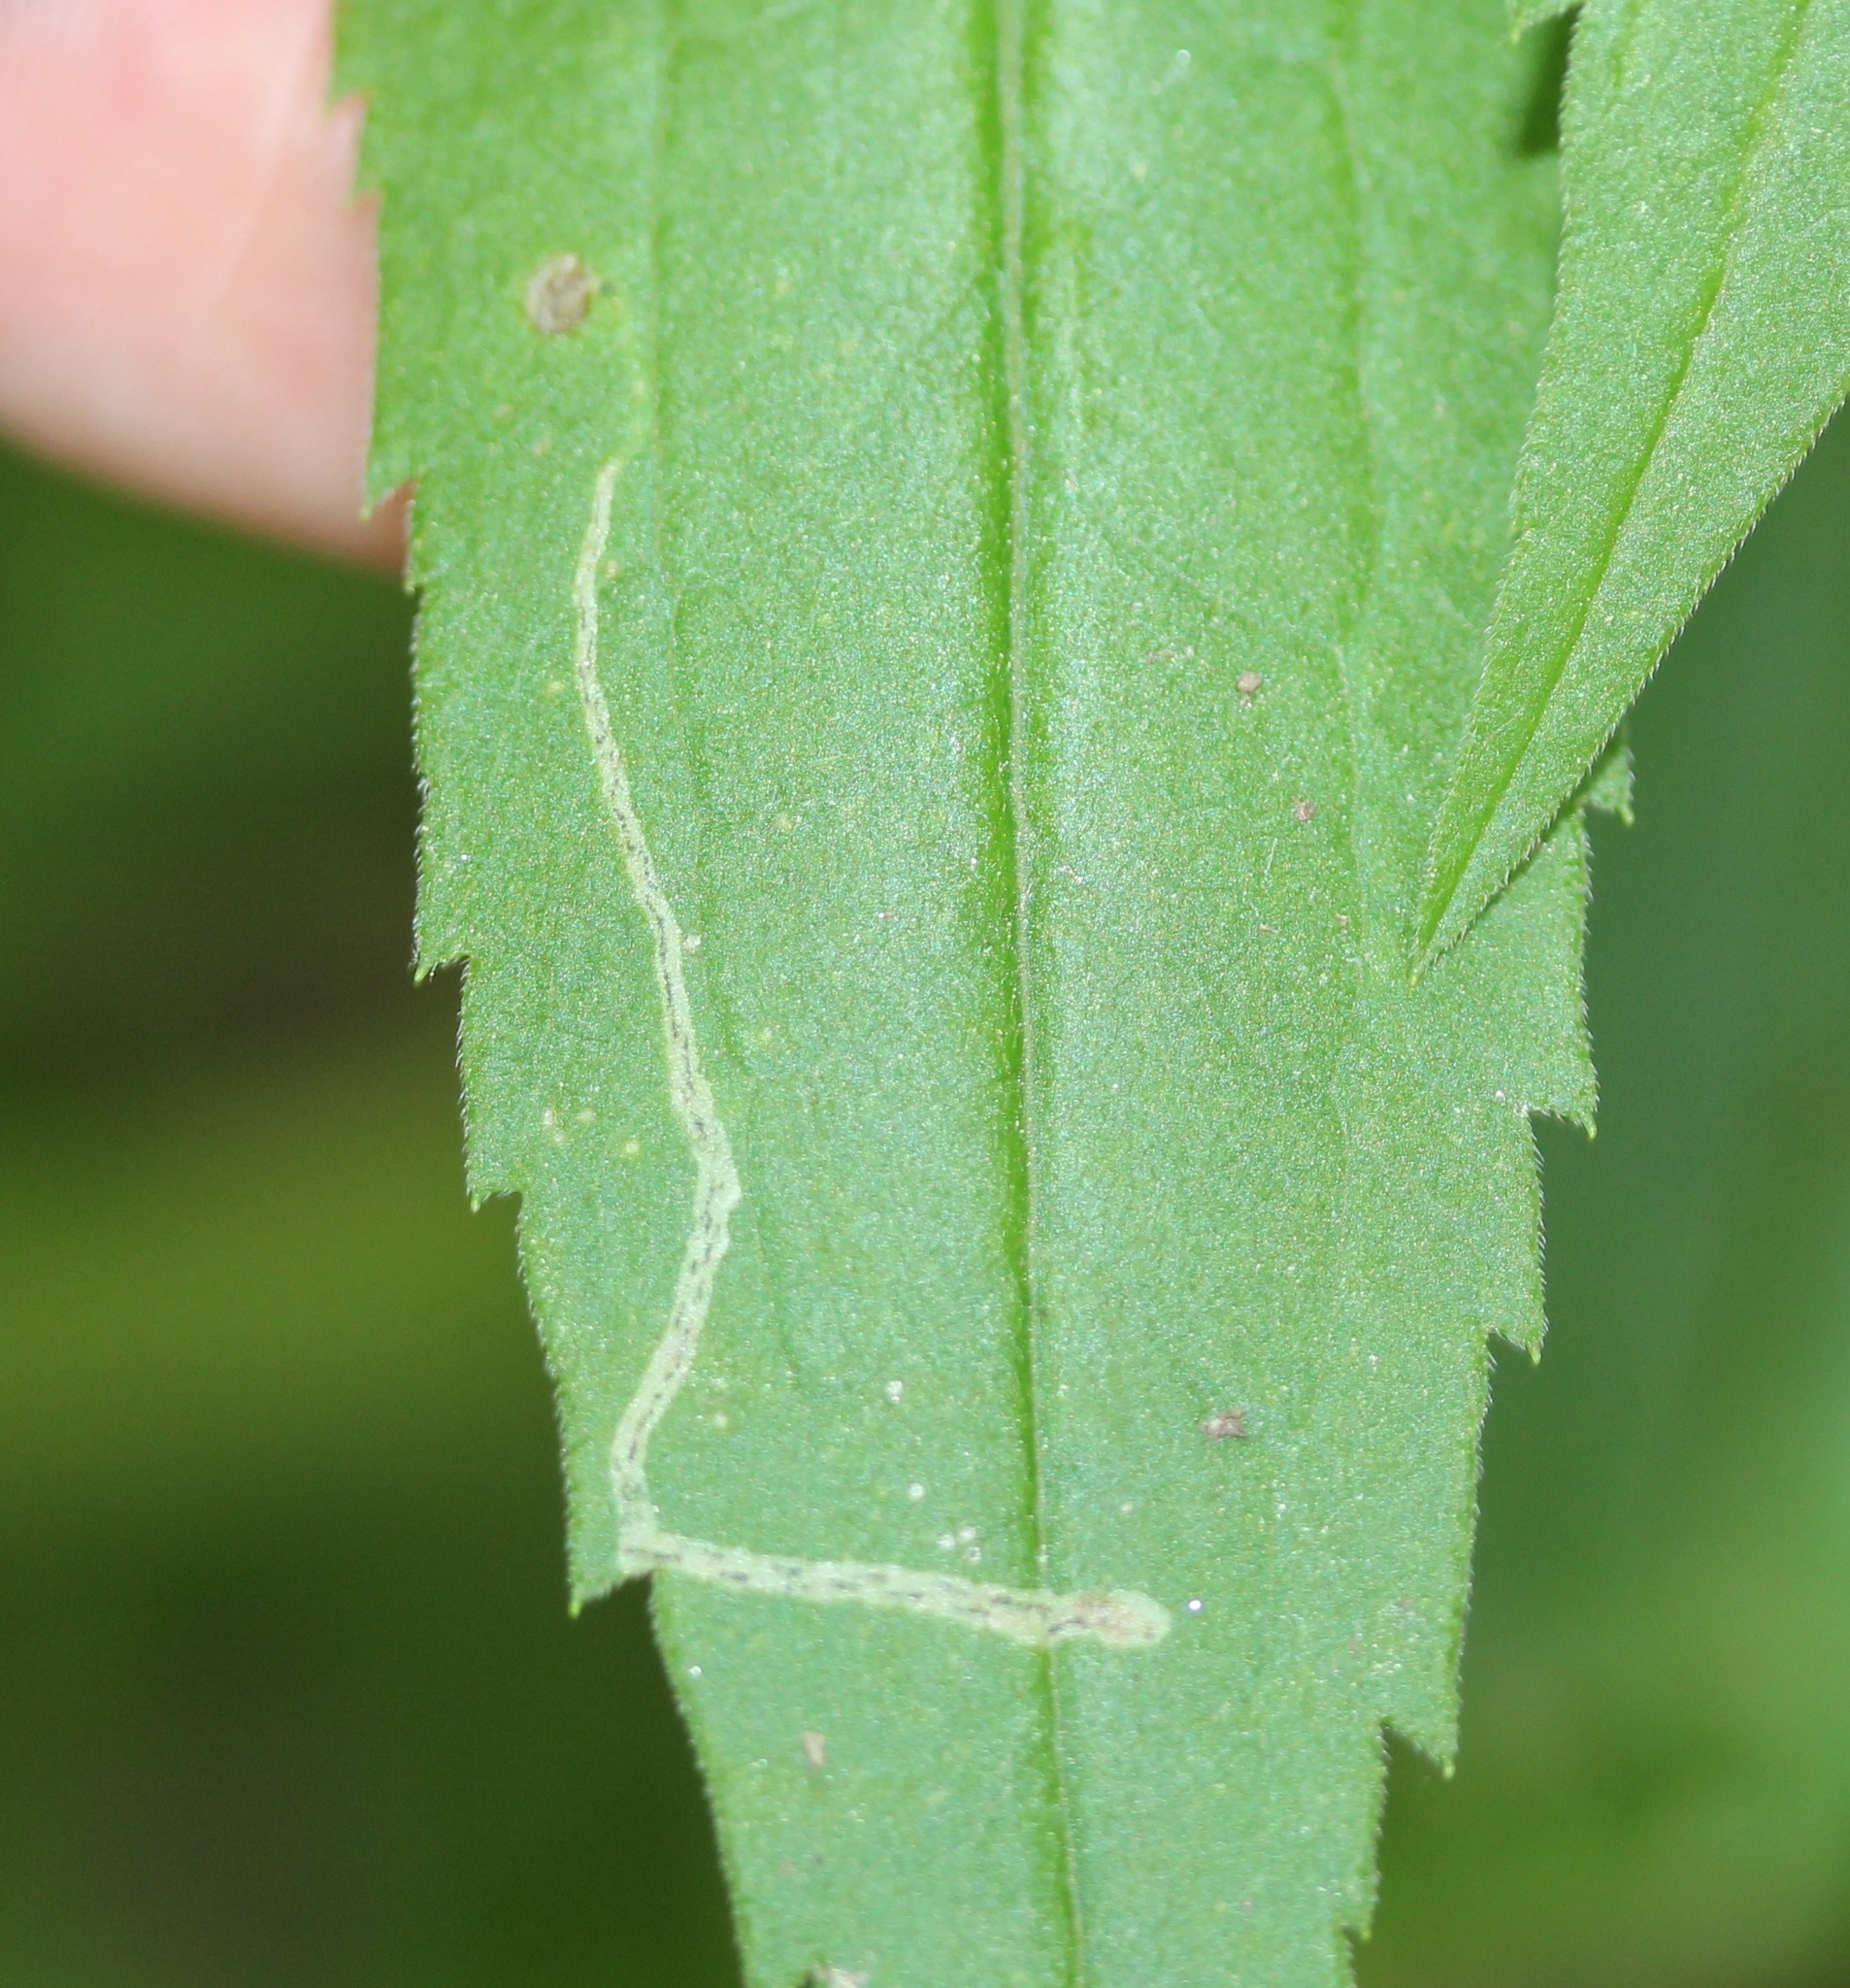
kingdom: Animalia
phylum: Arthropoda
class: Insecta
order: Diptera
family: Agromyzidae
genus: Liriomyza
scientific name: Liriomyza eupatorii
